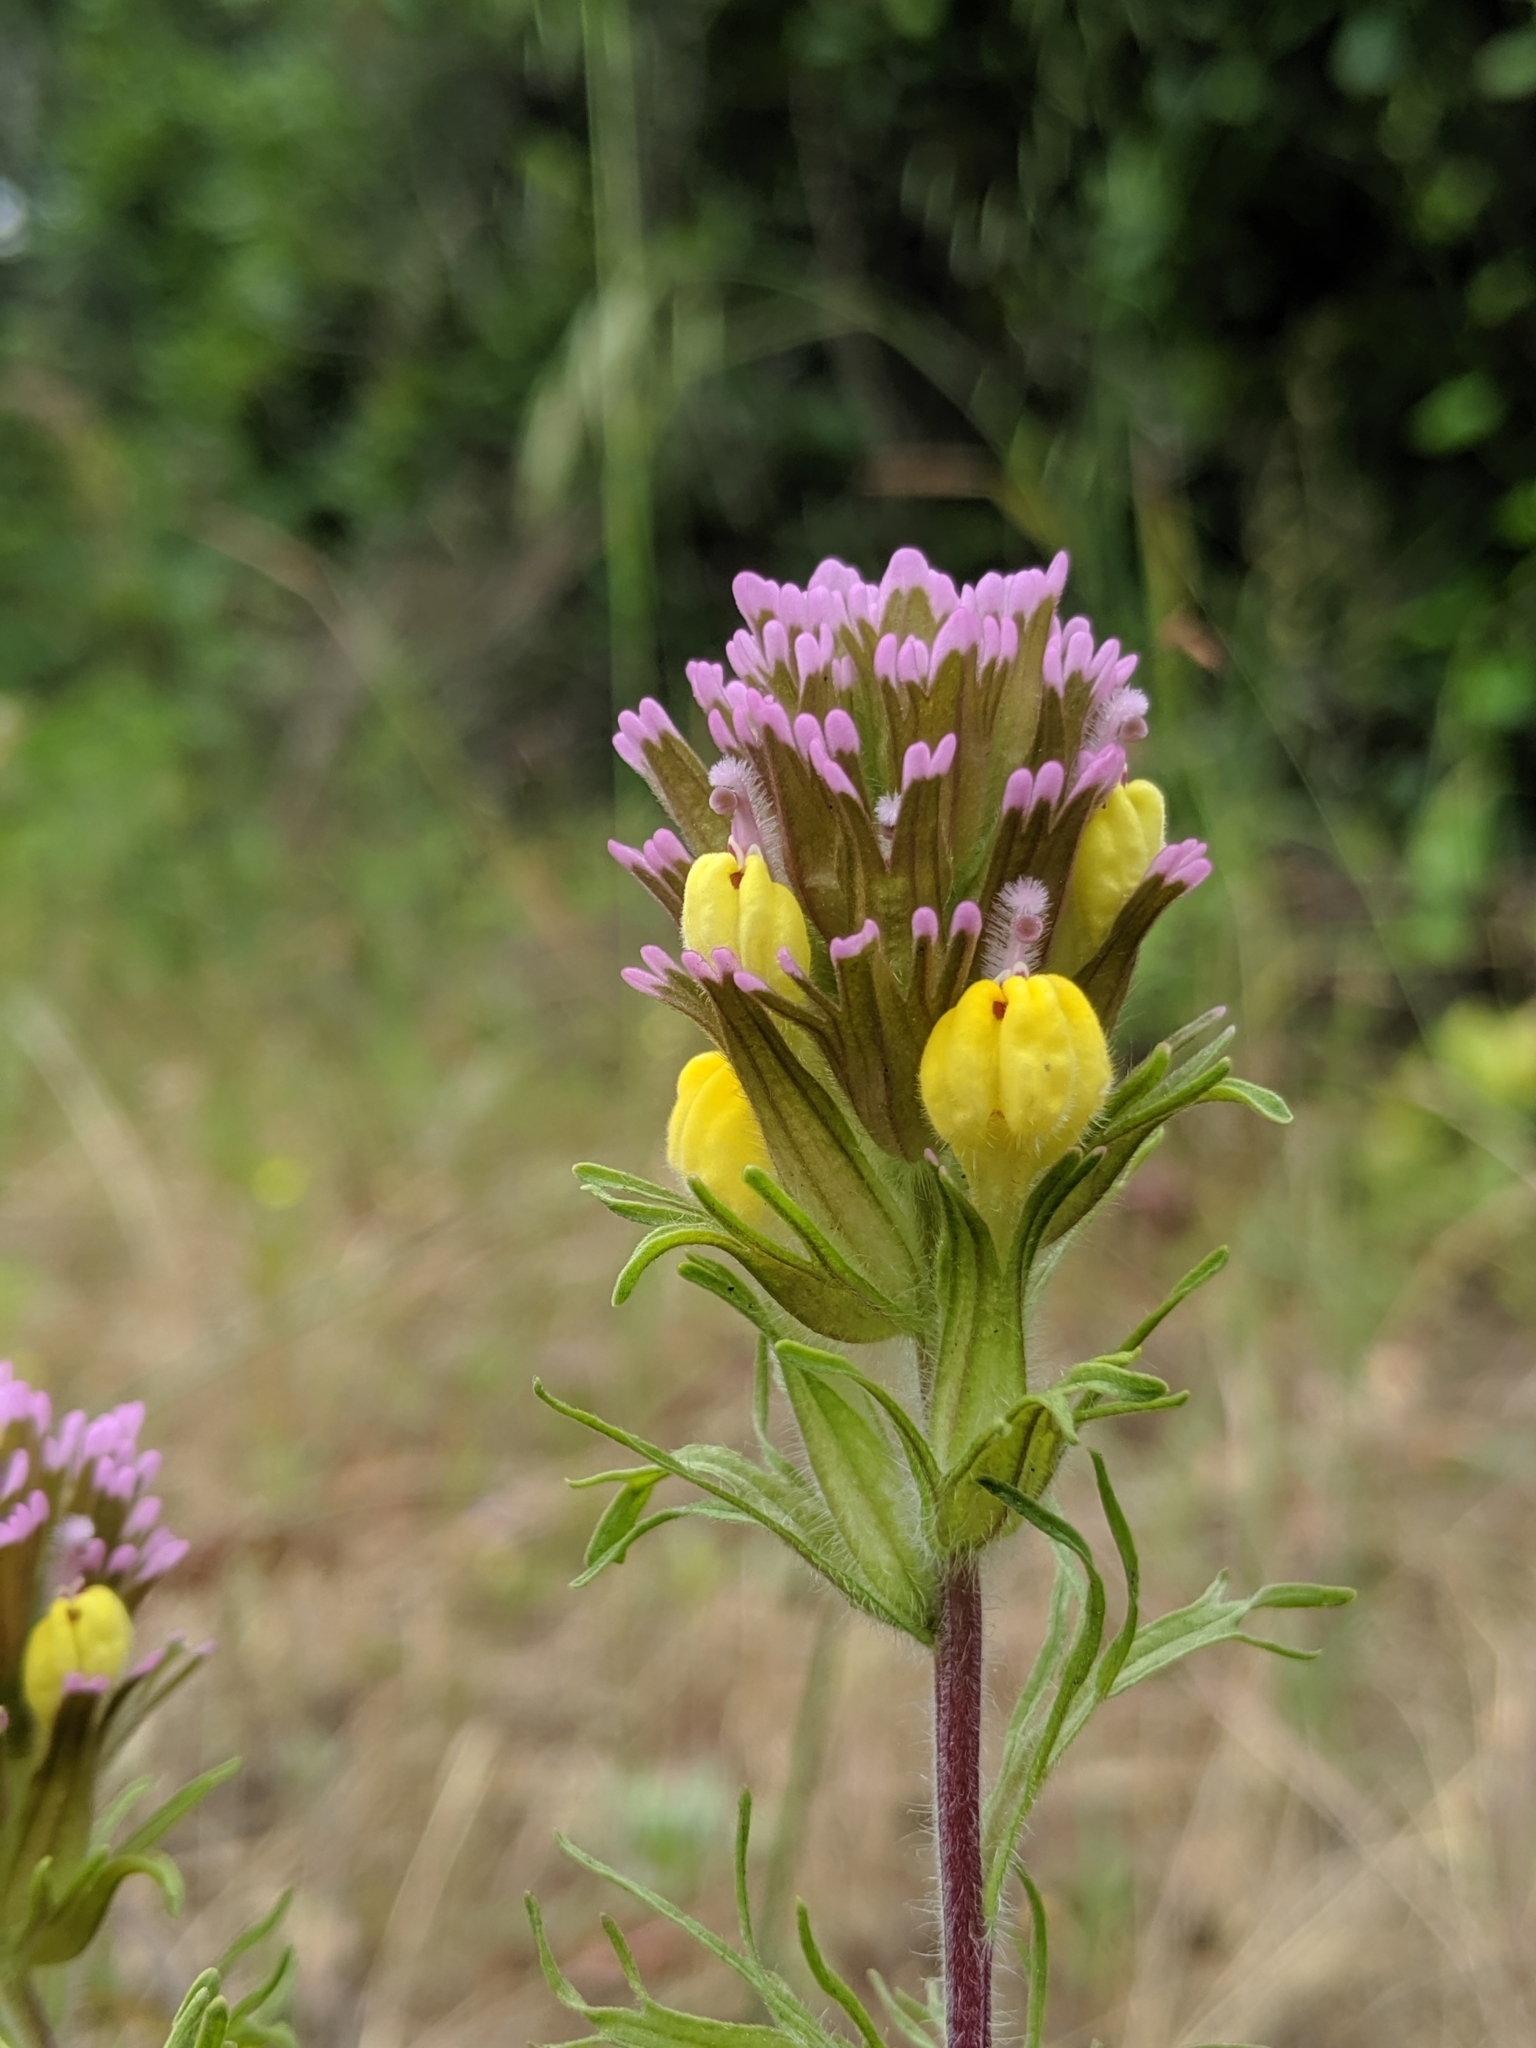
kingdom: Plantae
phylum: Tracheophyta
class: Magnoliopsida
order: Lamiales
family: Orobanchaceae
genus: Castilleja
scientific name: Castilleja exserta
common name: Purple owl-clover
